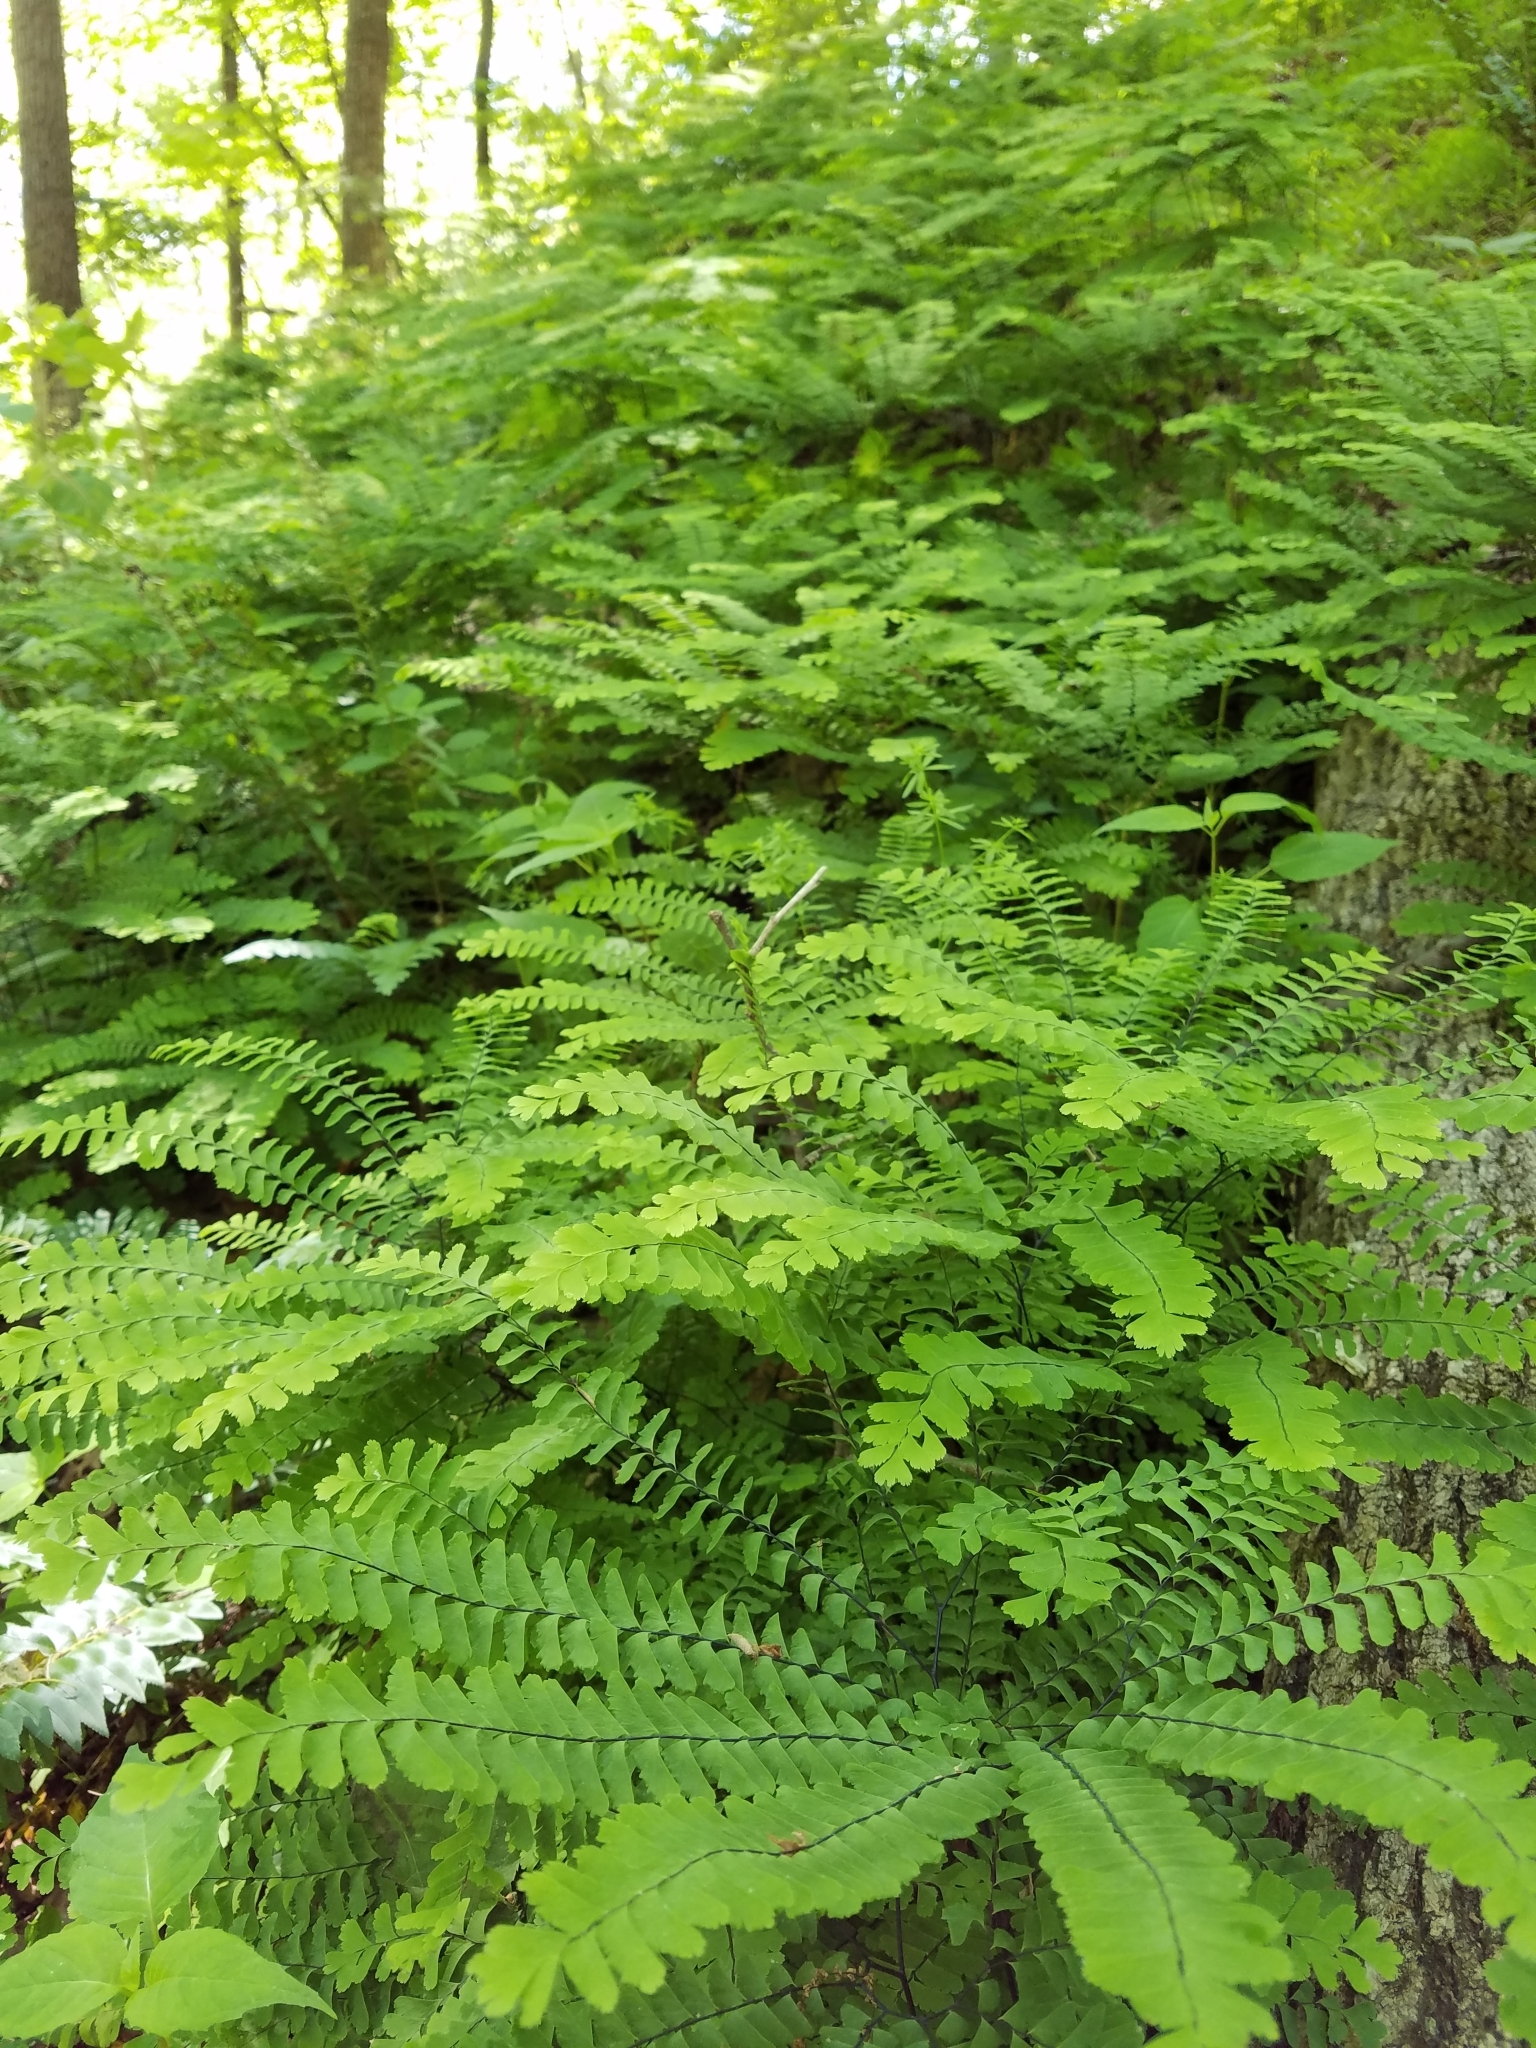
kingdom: Plantae
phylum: Tracheophyta
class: Polypodiopsida
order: Polypodiales
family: Pteridaceae
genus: Adiantum
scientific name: Adiantum pedatum
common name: Five-finger fern
